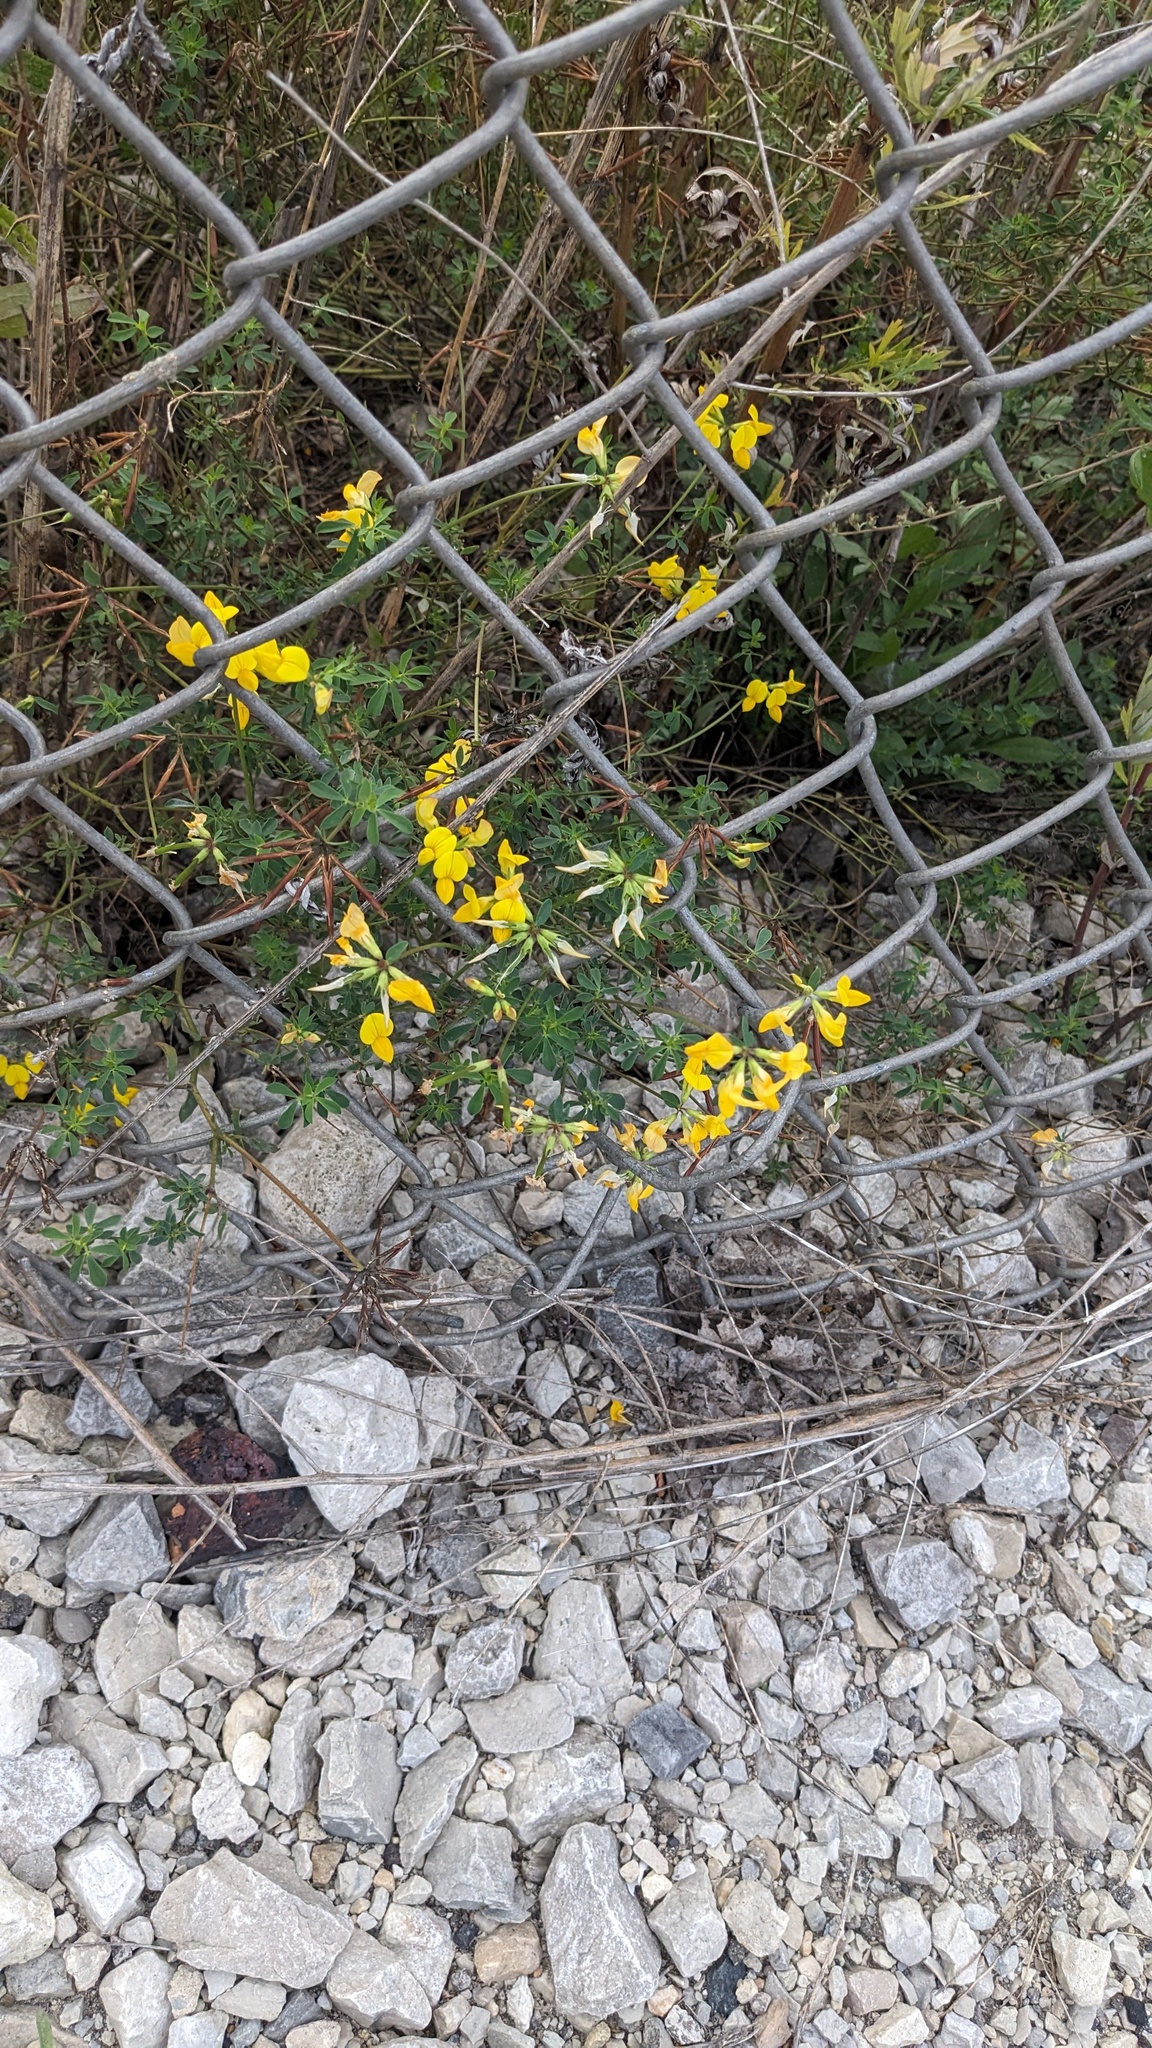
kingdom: Plantae
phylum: Tracheophyta
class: Magnoliopsida
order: Fabales
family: Fabaceae
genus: Lotus
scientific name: Lotus corniculatus
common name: Common bird's-foot-trefoil
